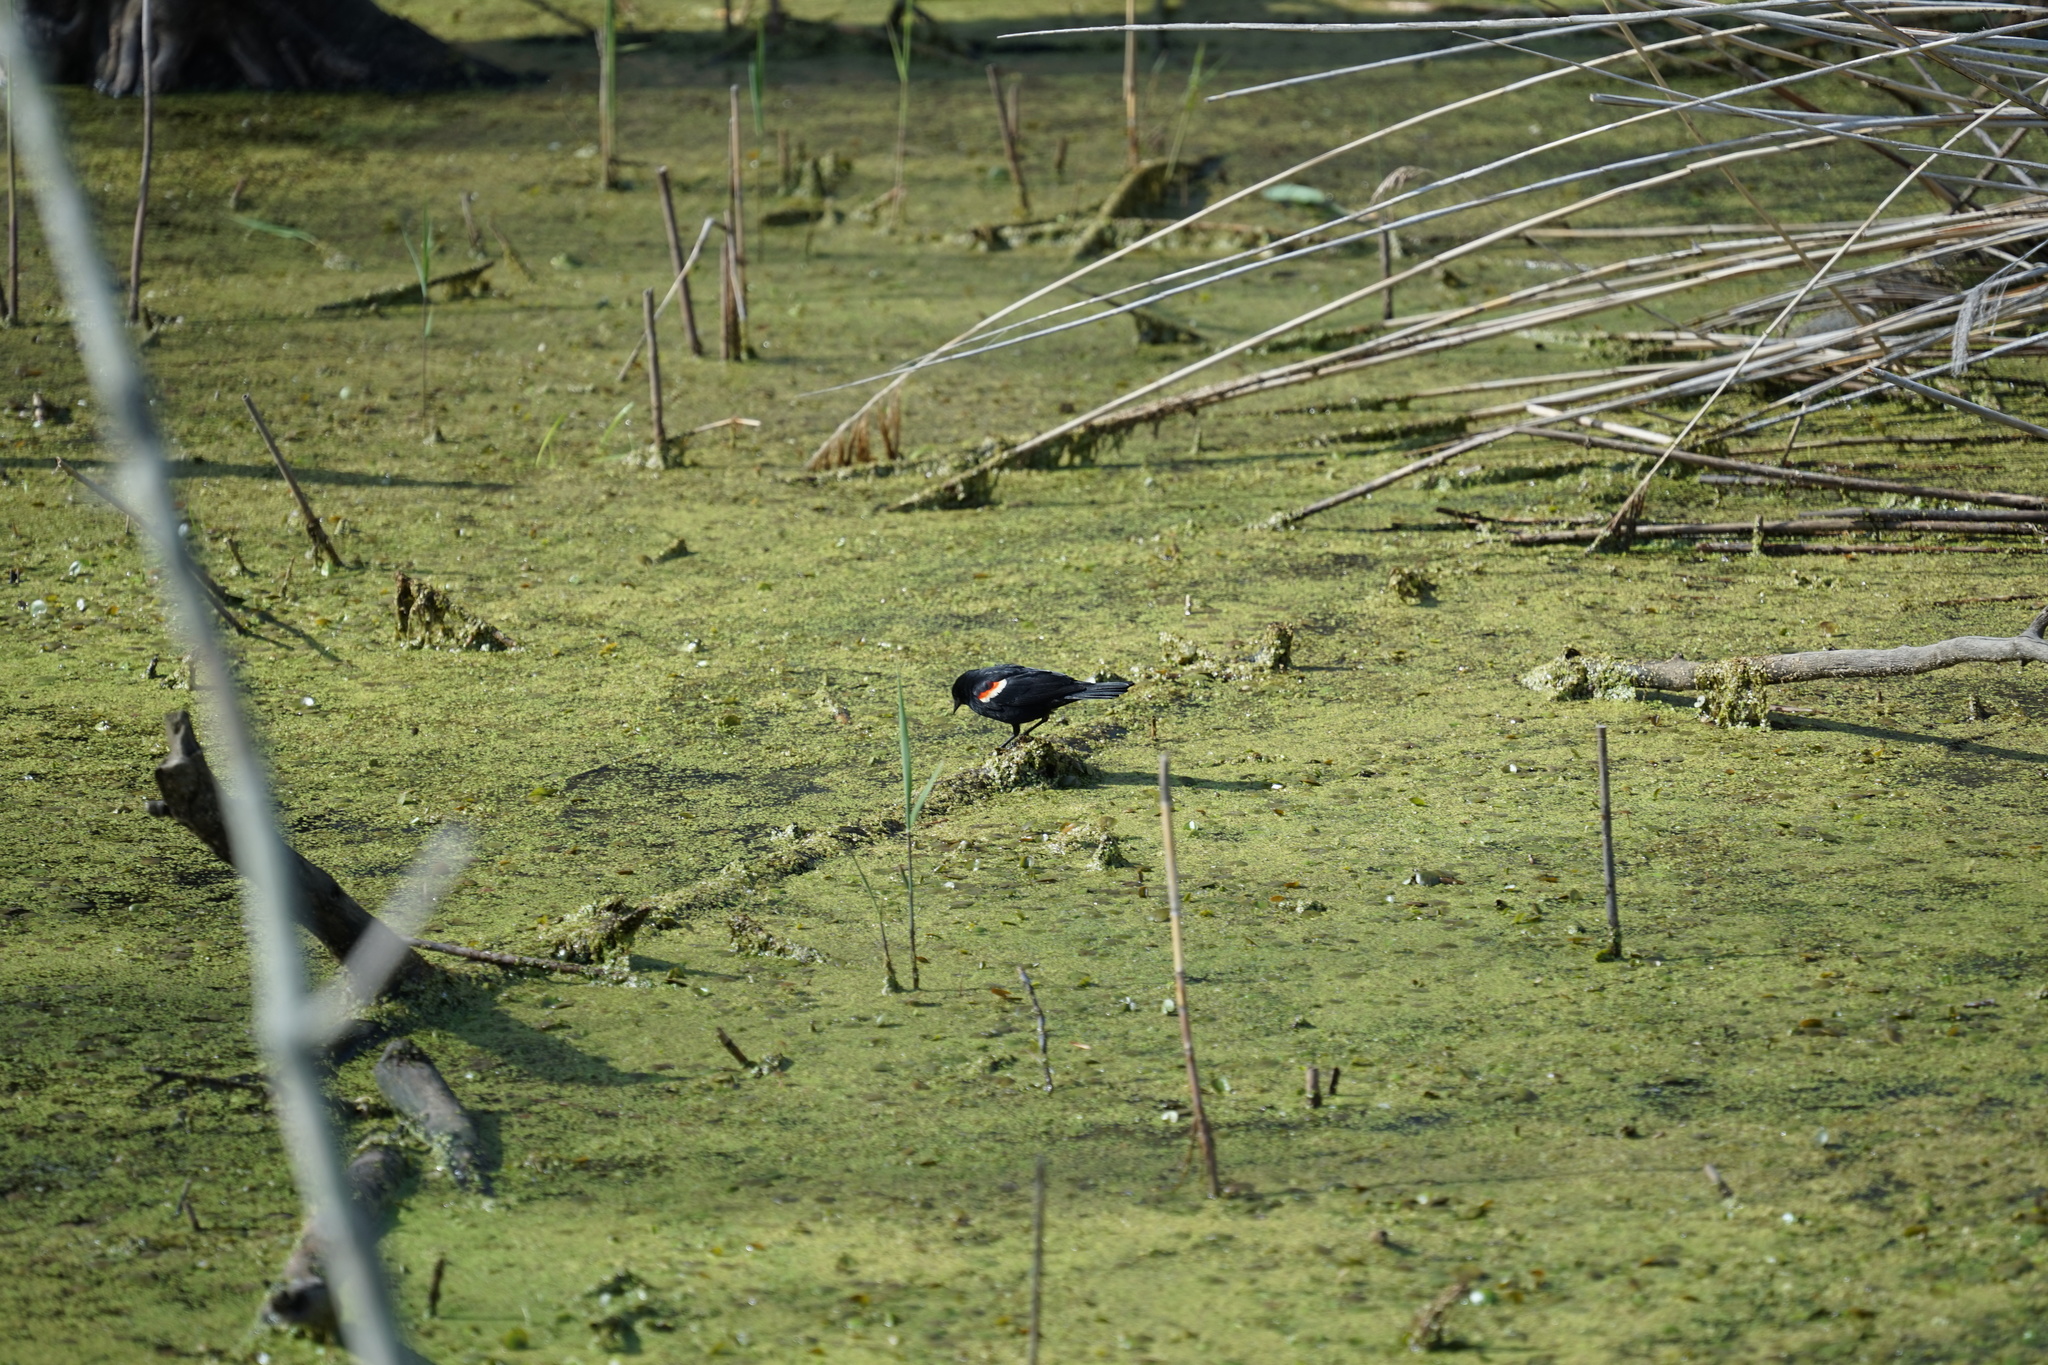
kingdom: Animalia
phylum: Chordata
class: Aves
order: Passeriformes
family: Icteridae
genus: Agelaius
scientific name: Agelaius phoeniceus
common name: Red-winged blackbird
